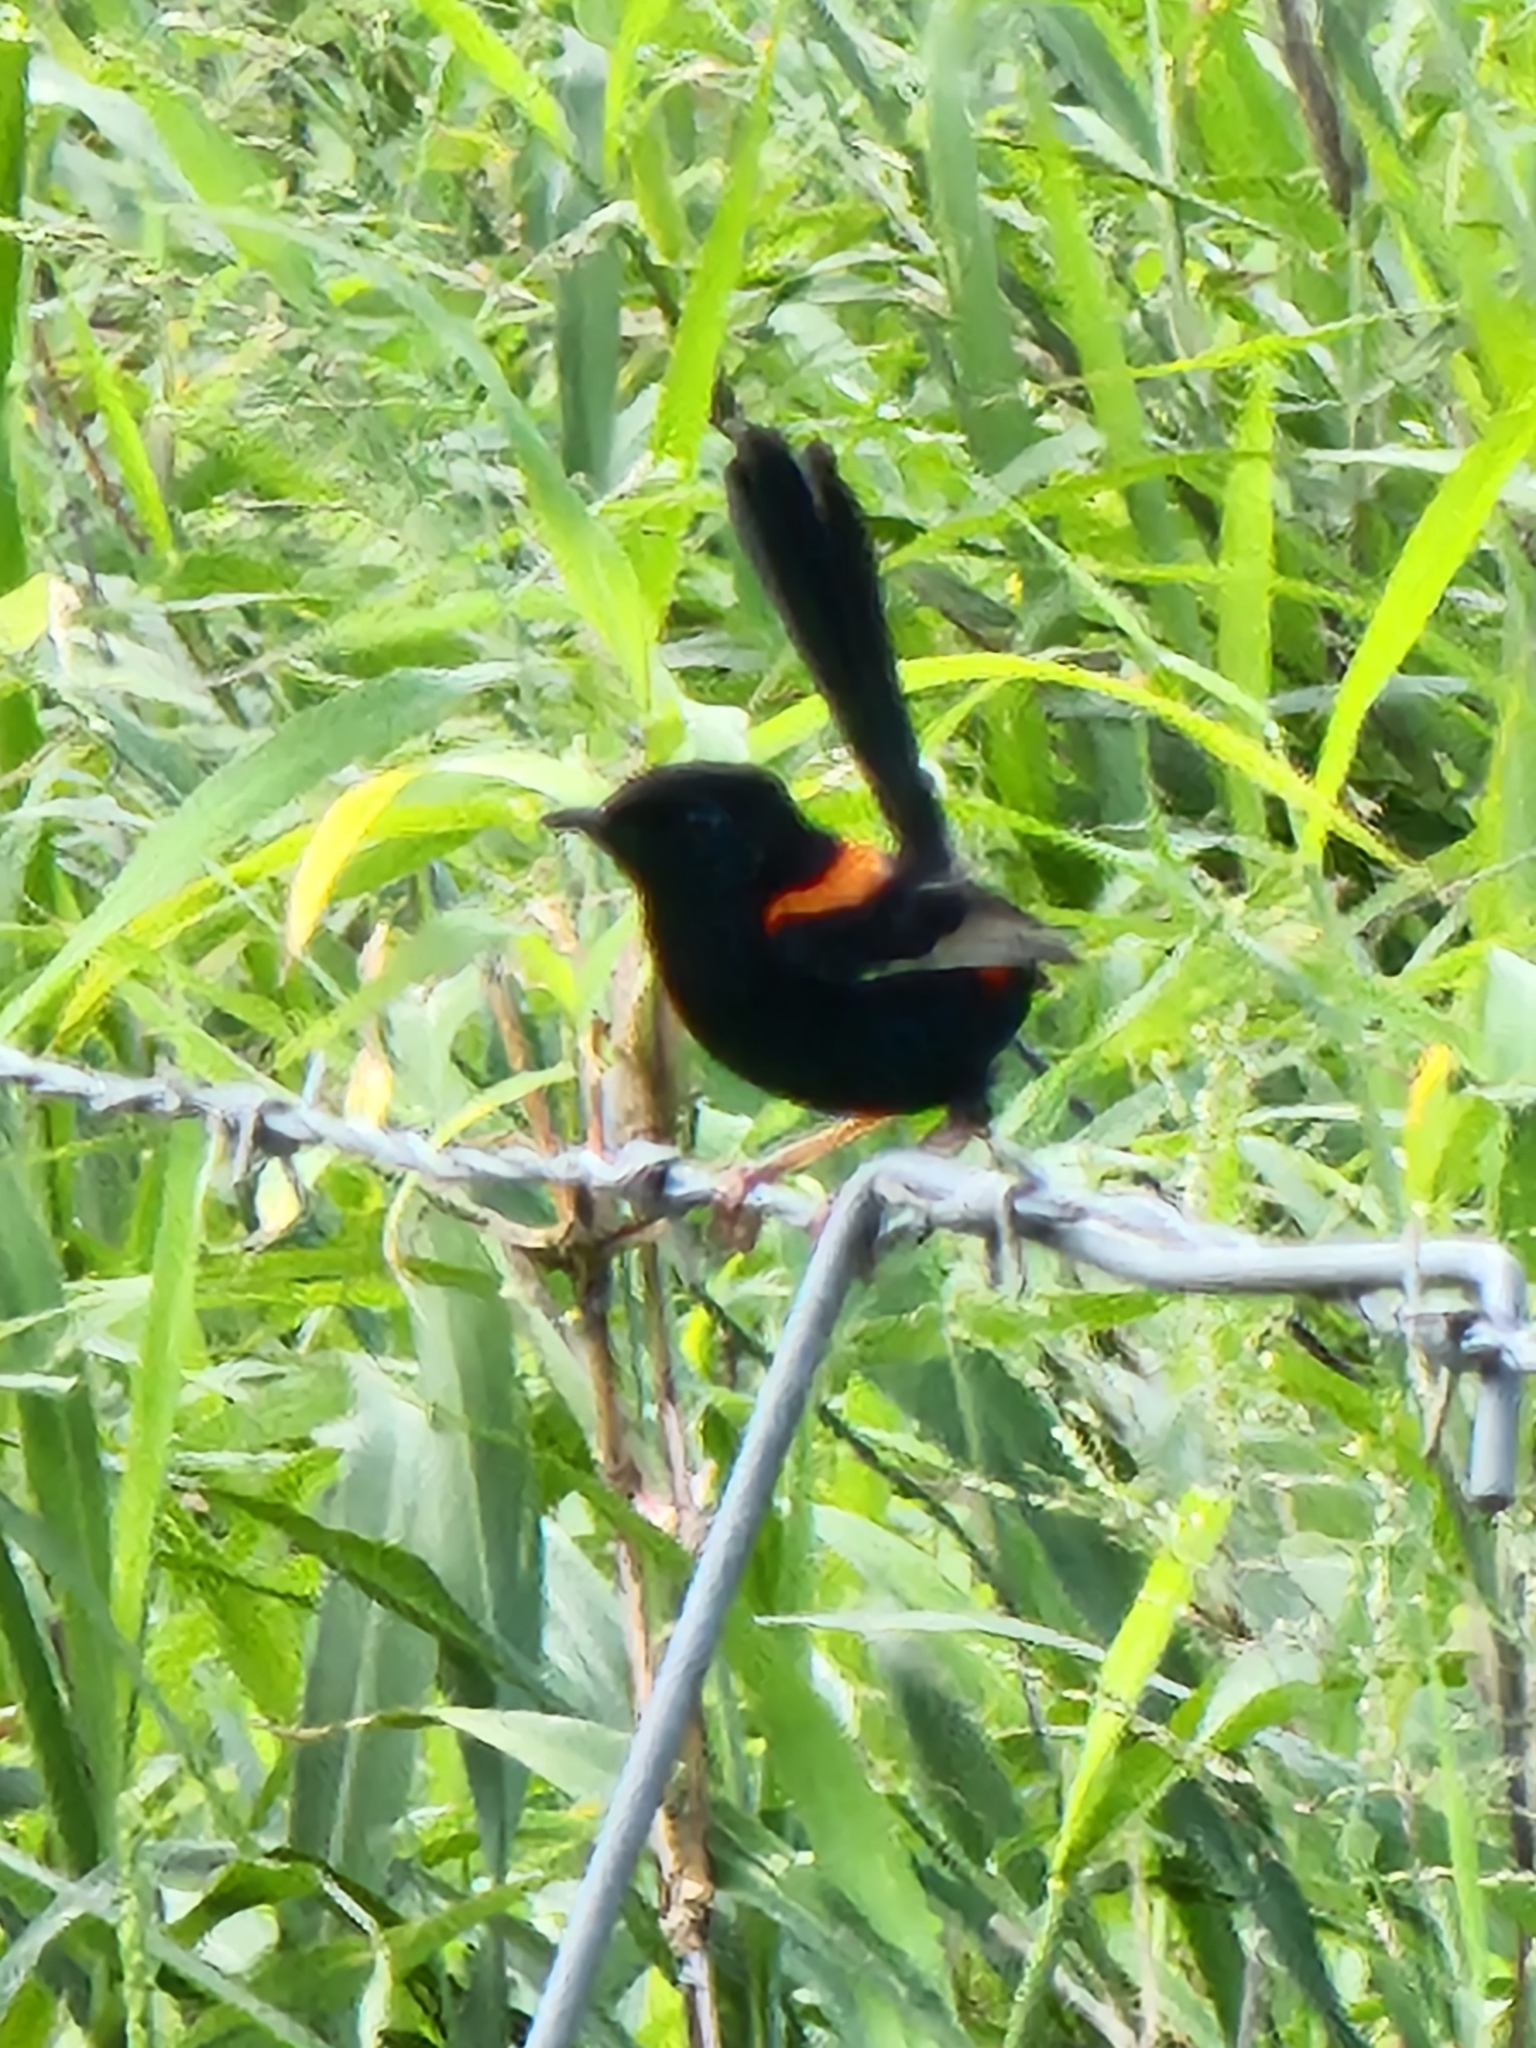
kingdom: Animalia
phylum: Chordata
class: Aves
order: Passeriformes
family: Maluridae
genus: Malurus
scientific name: Malurus melanocephalus
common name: Red-backed fairywren
